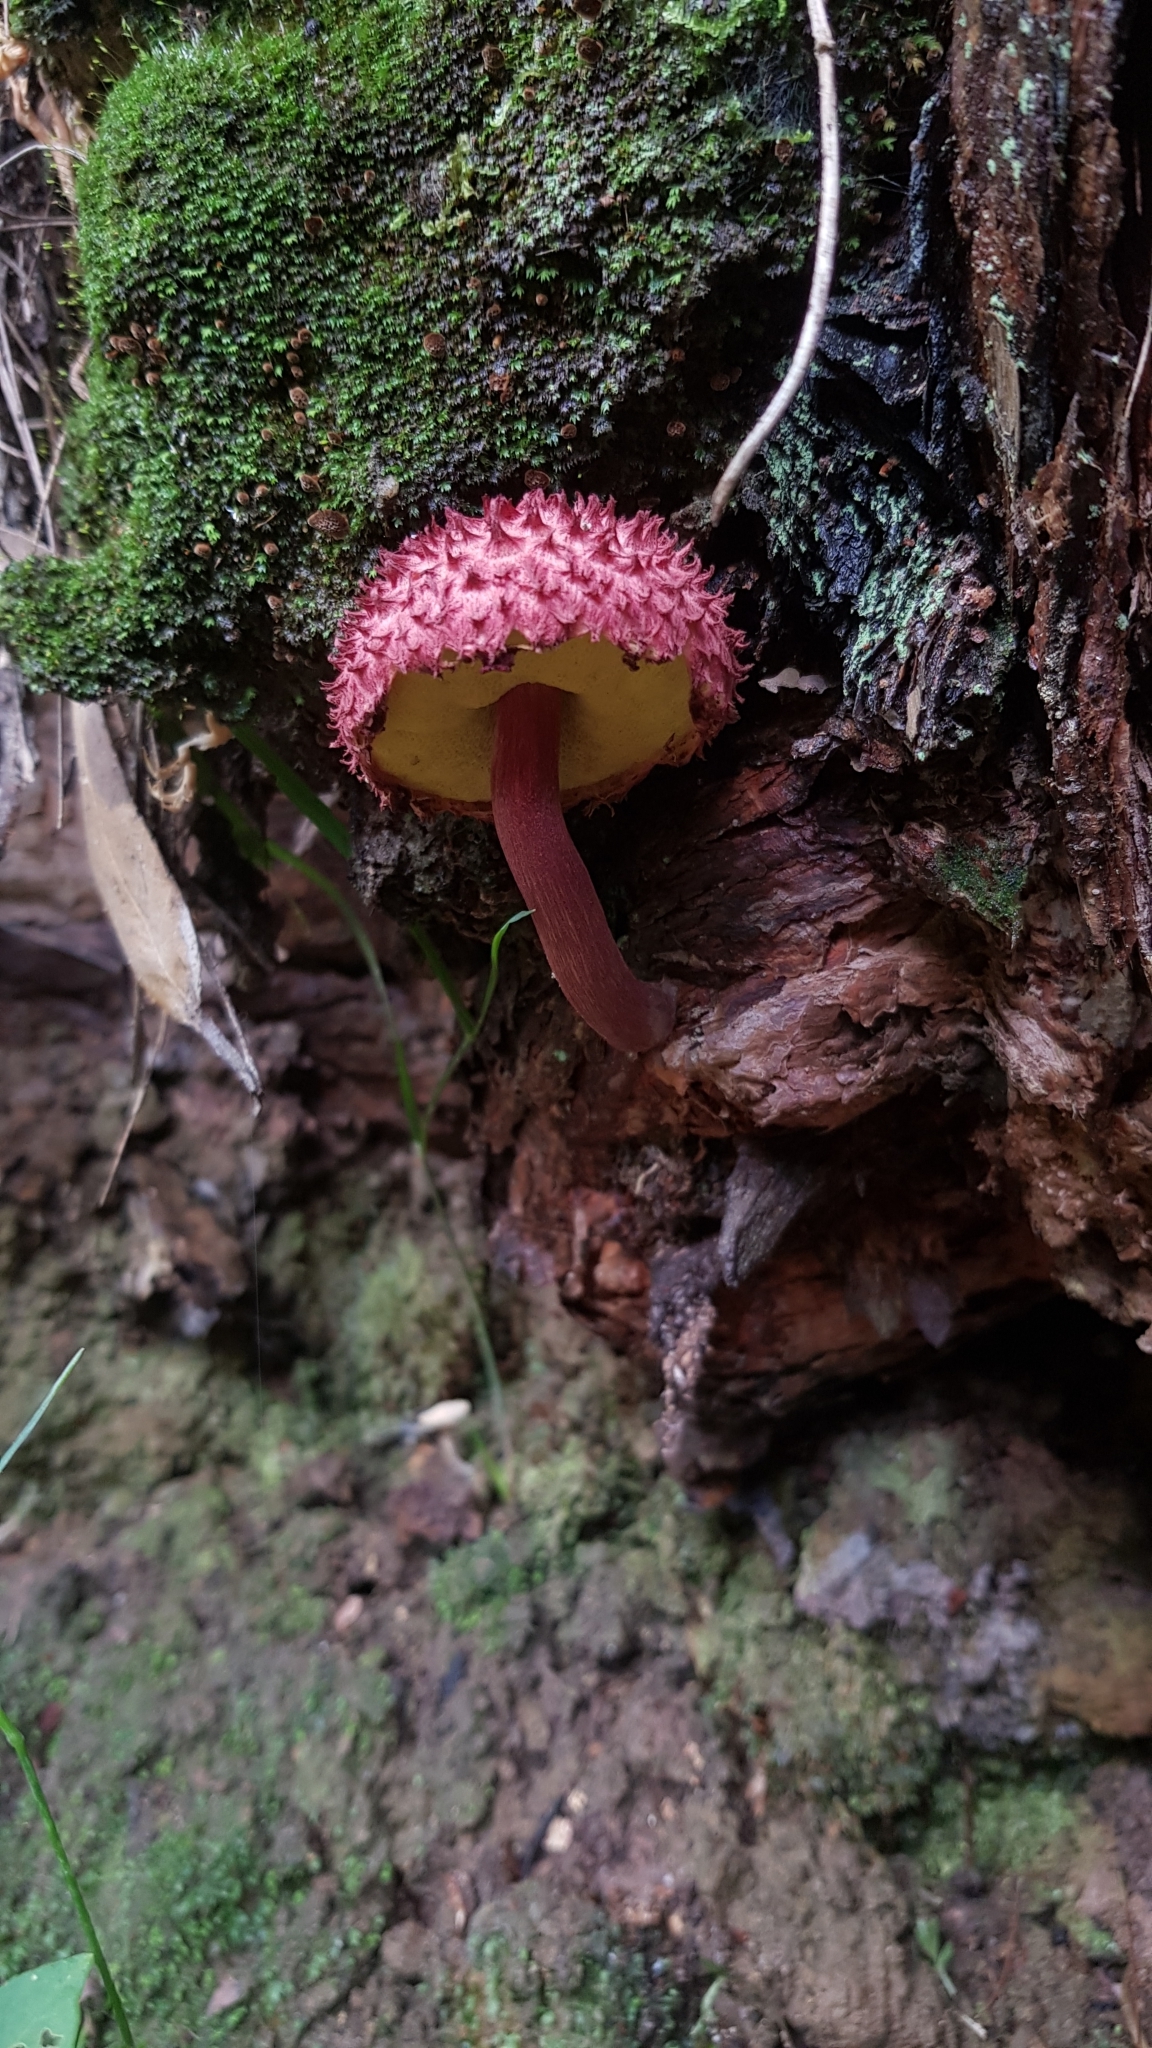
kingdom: Fungi
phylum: Basidiomycota
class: Agaricomycetes
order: Boletales
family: Boletaceae
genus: Boletellus
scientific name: Boletellus emodensis
